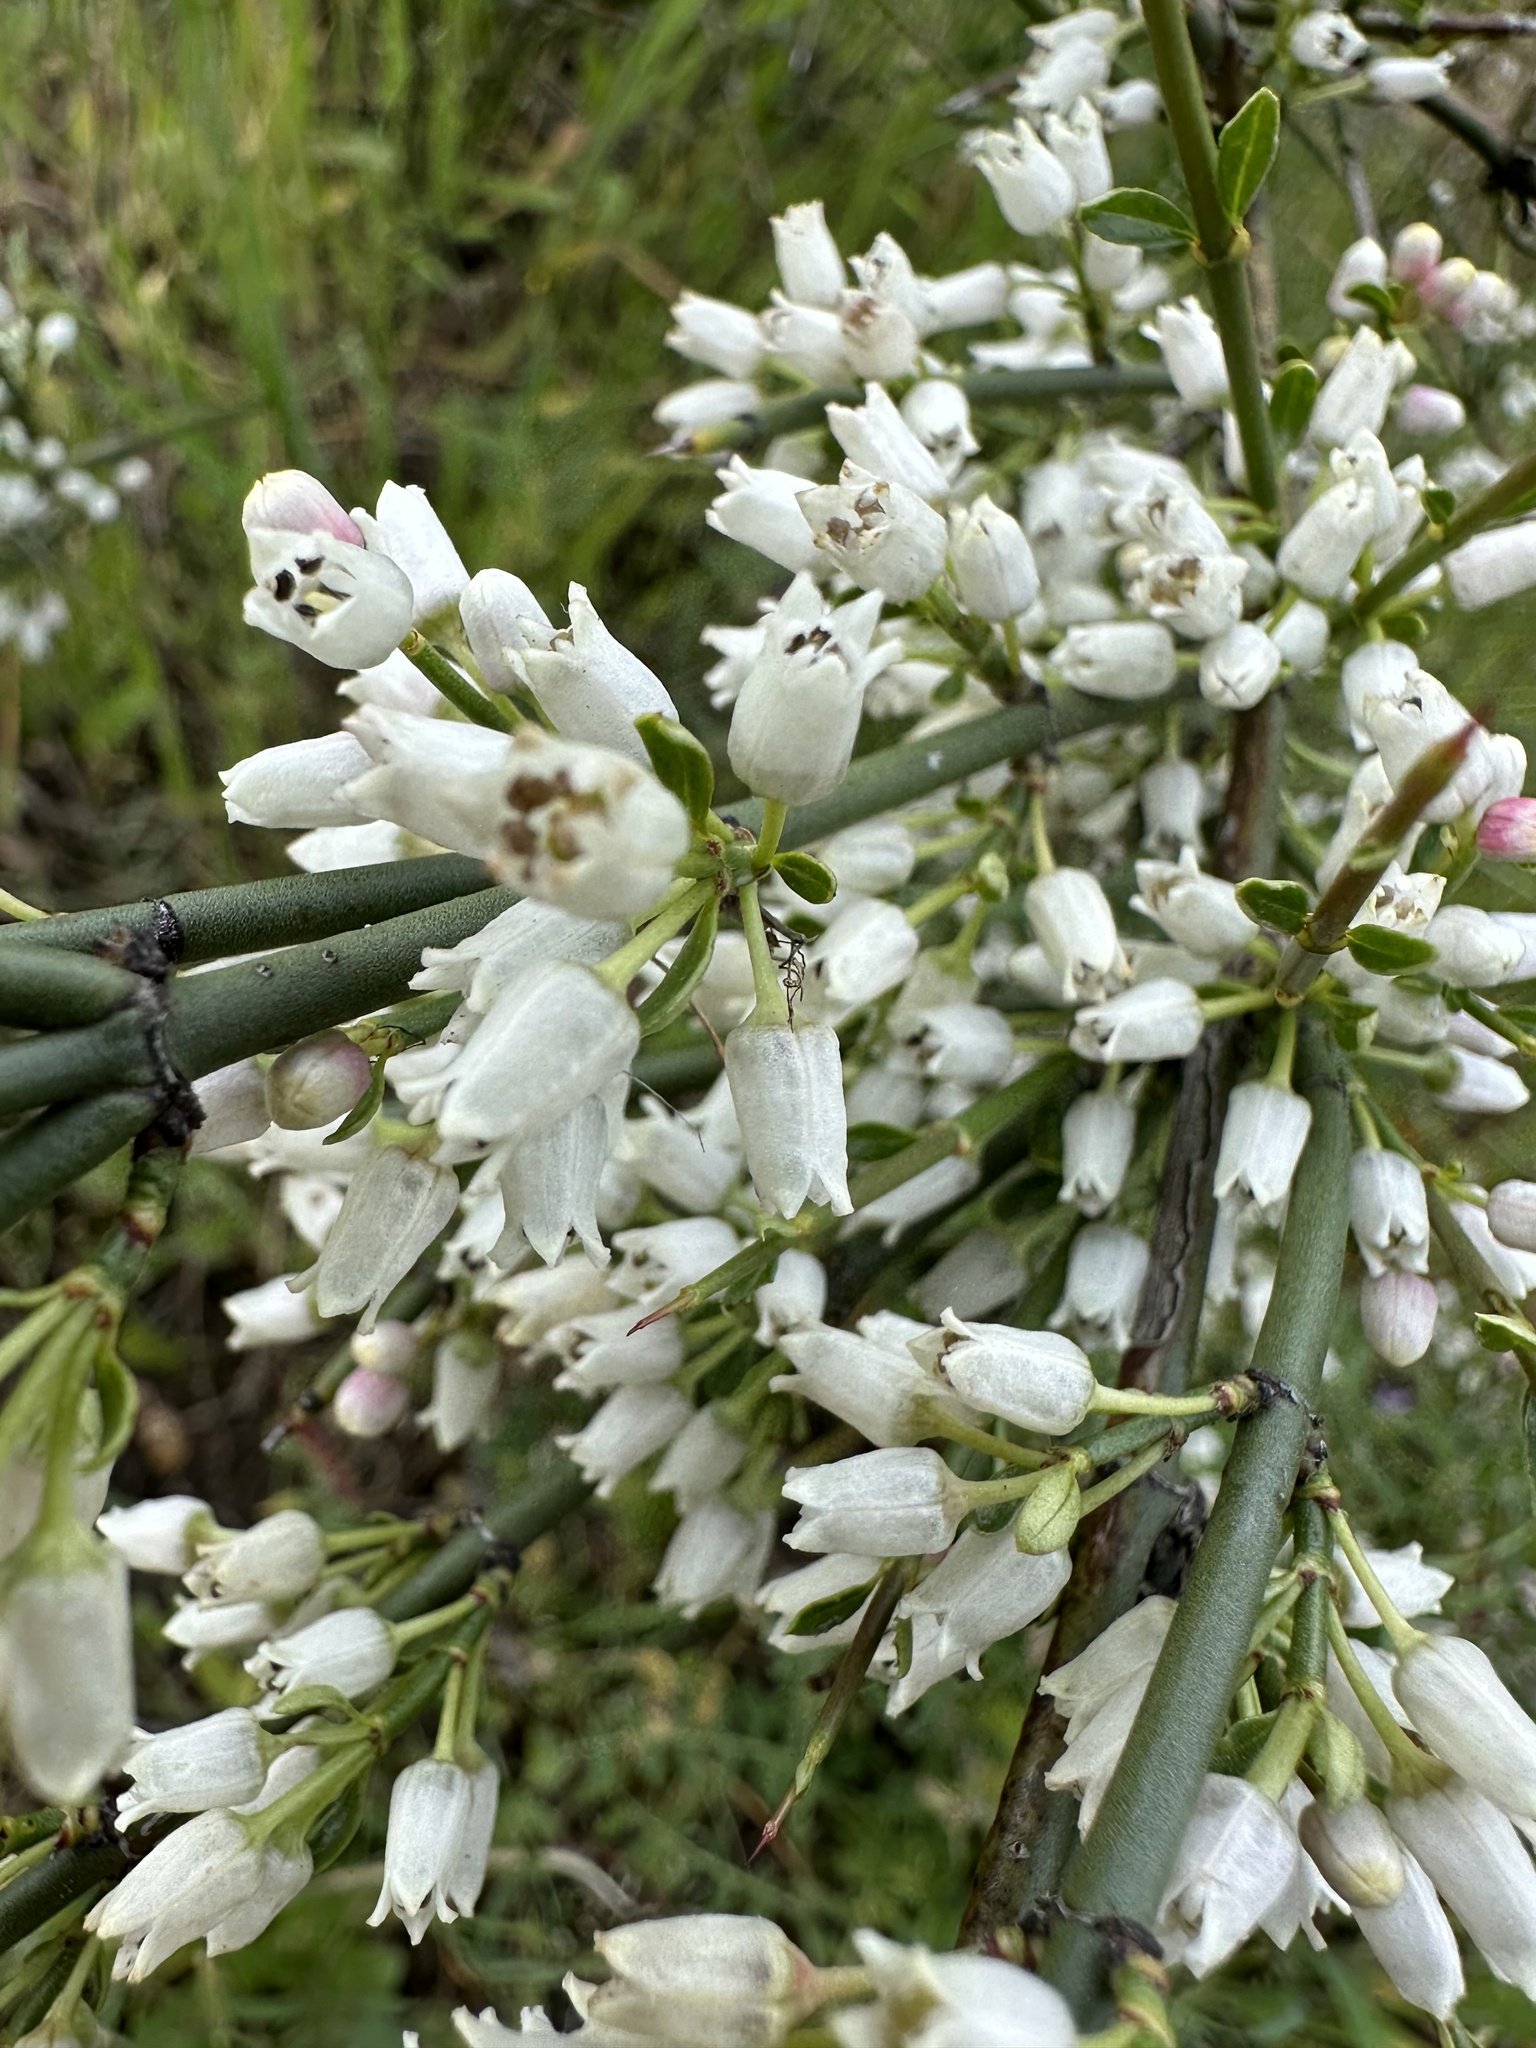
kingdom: Plantae
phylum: Tracheophyta
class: Magnoliopsida
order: Rosales
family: Rhamnaceae
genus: Colletia
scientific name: Colletia hystrix
